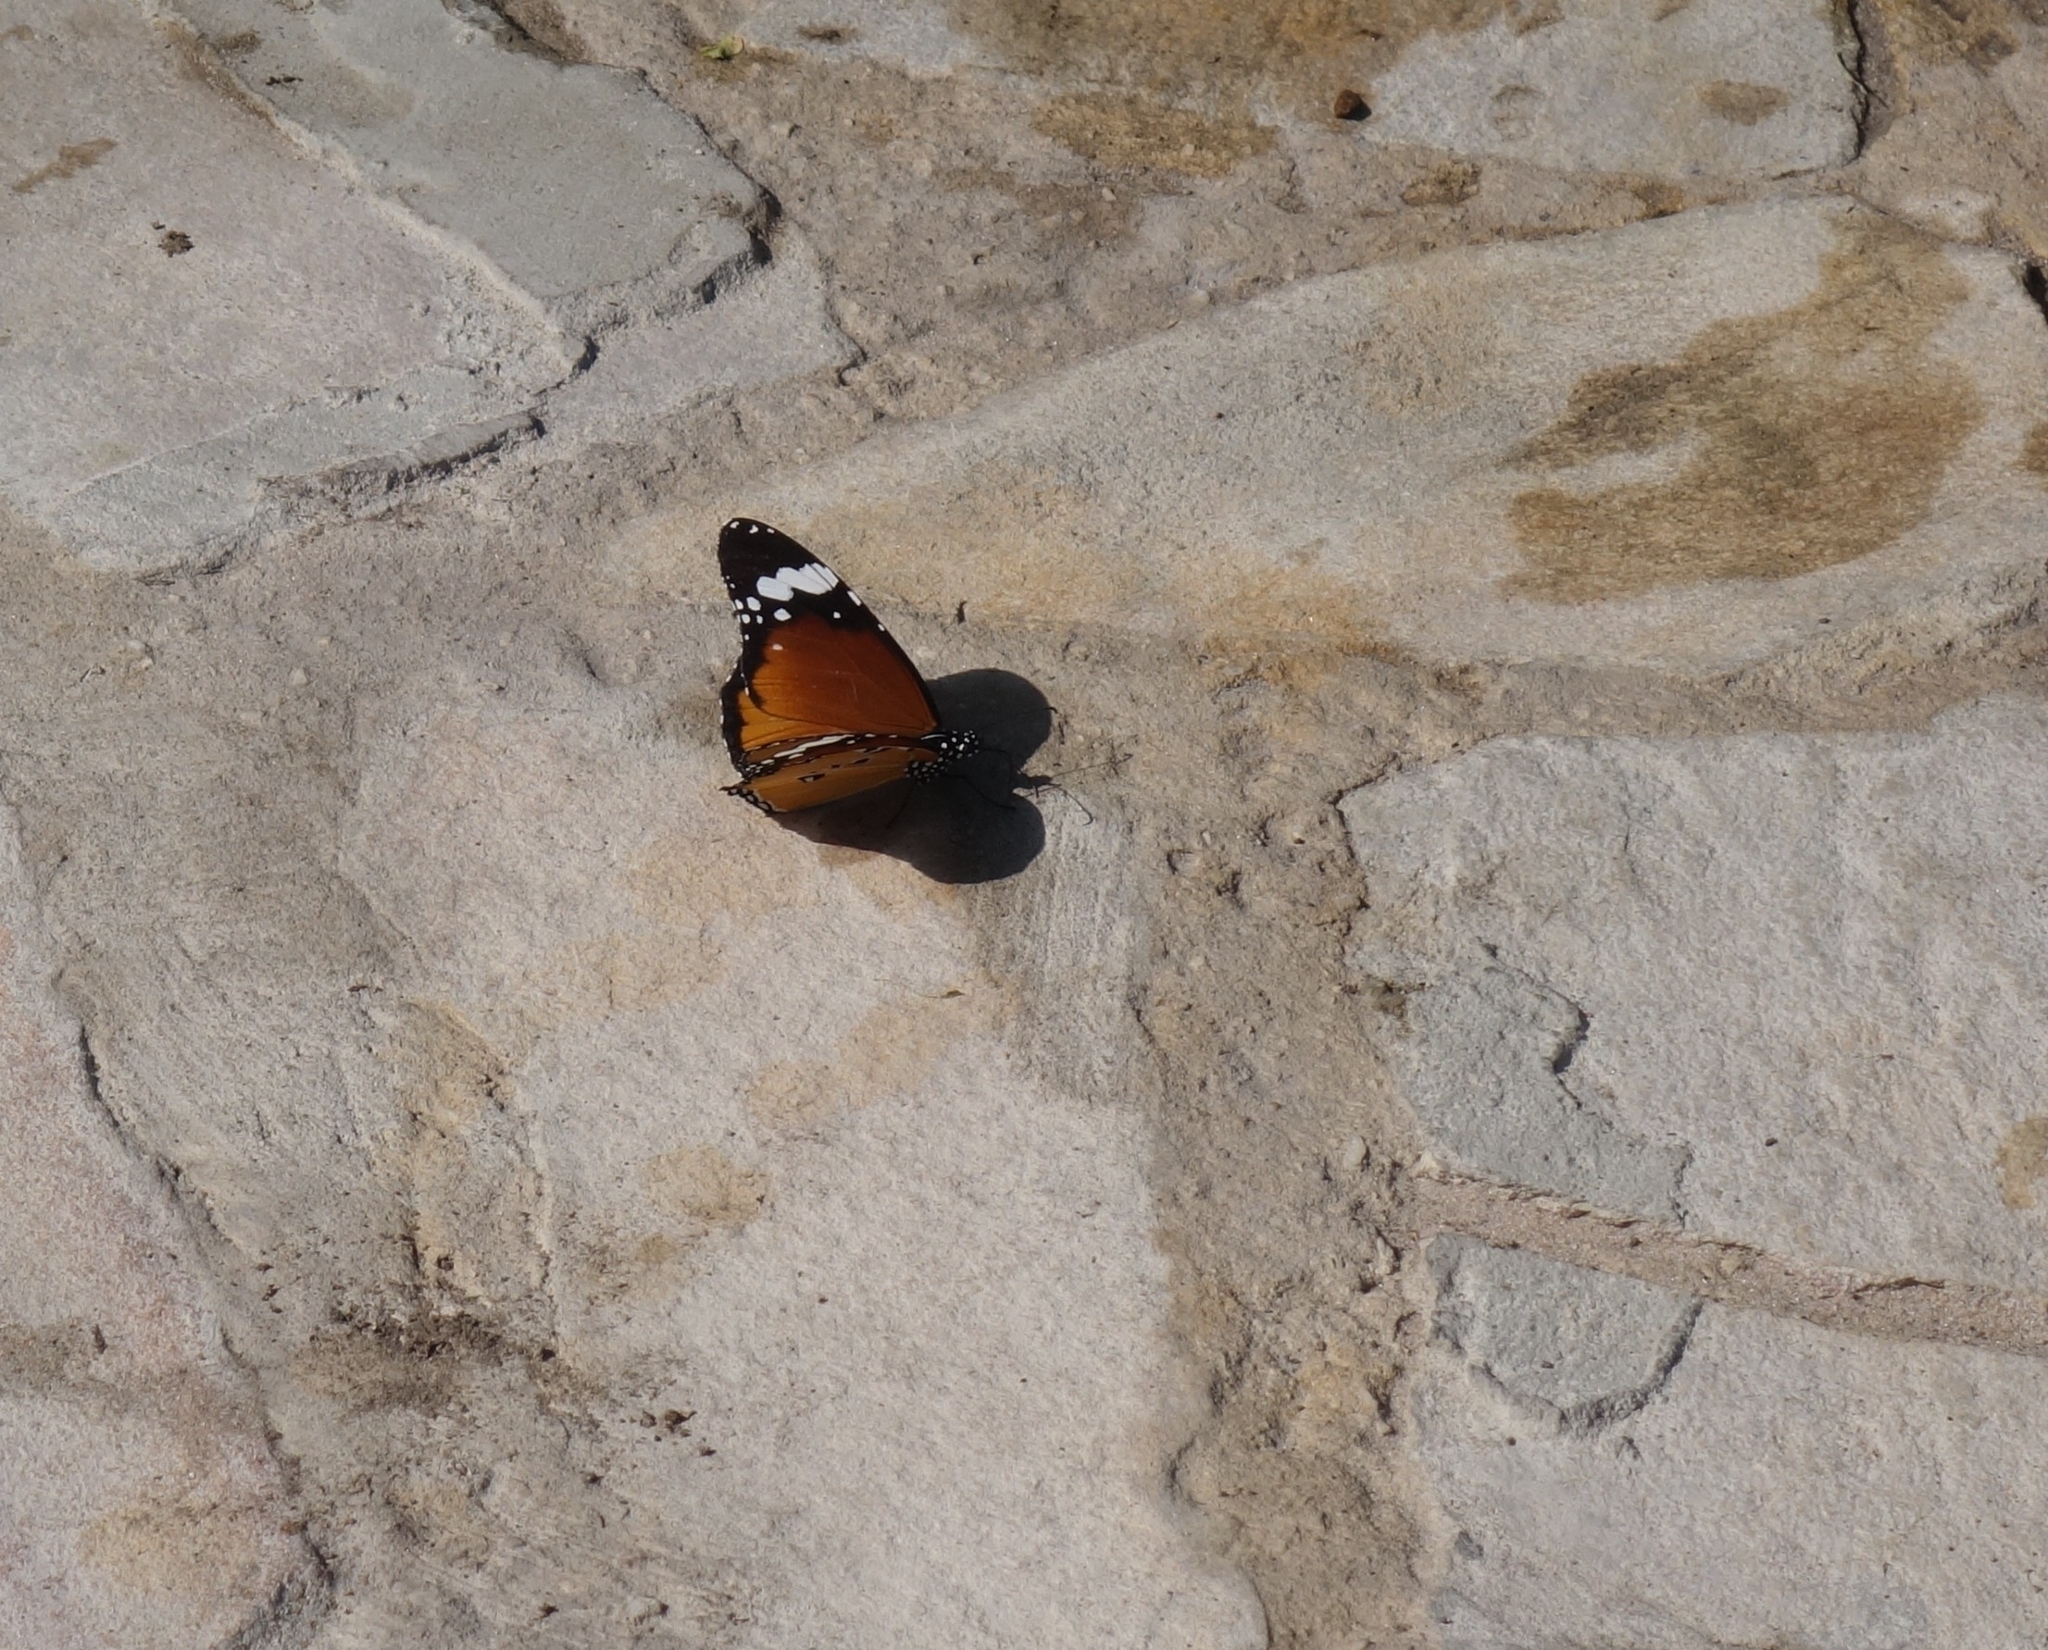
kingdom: Animalia
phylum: Arthropoda
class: Insecta
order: Lepidoptera
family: Nymphalidae
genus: Danaus
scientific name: Danaus chrysippus
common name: Plain tiger
